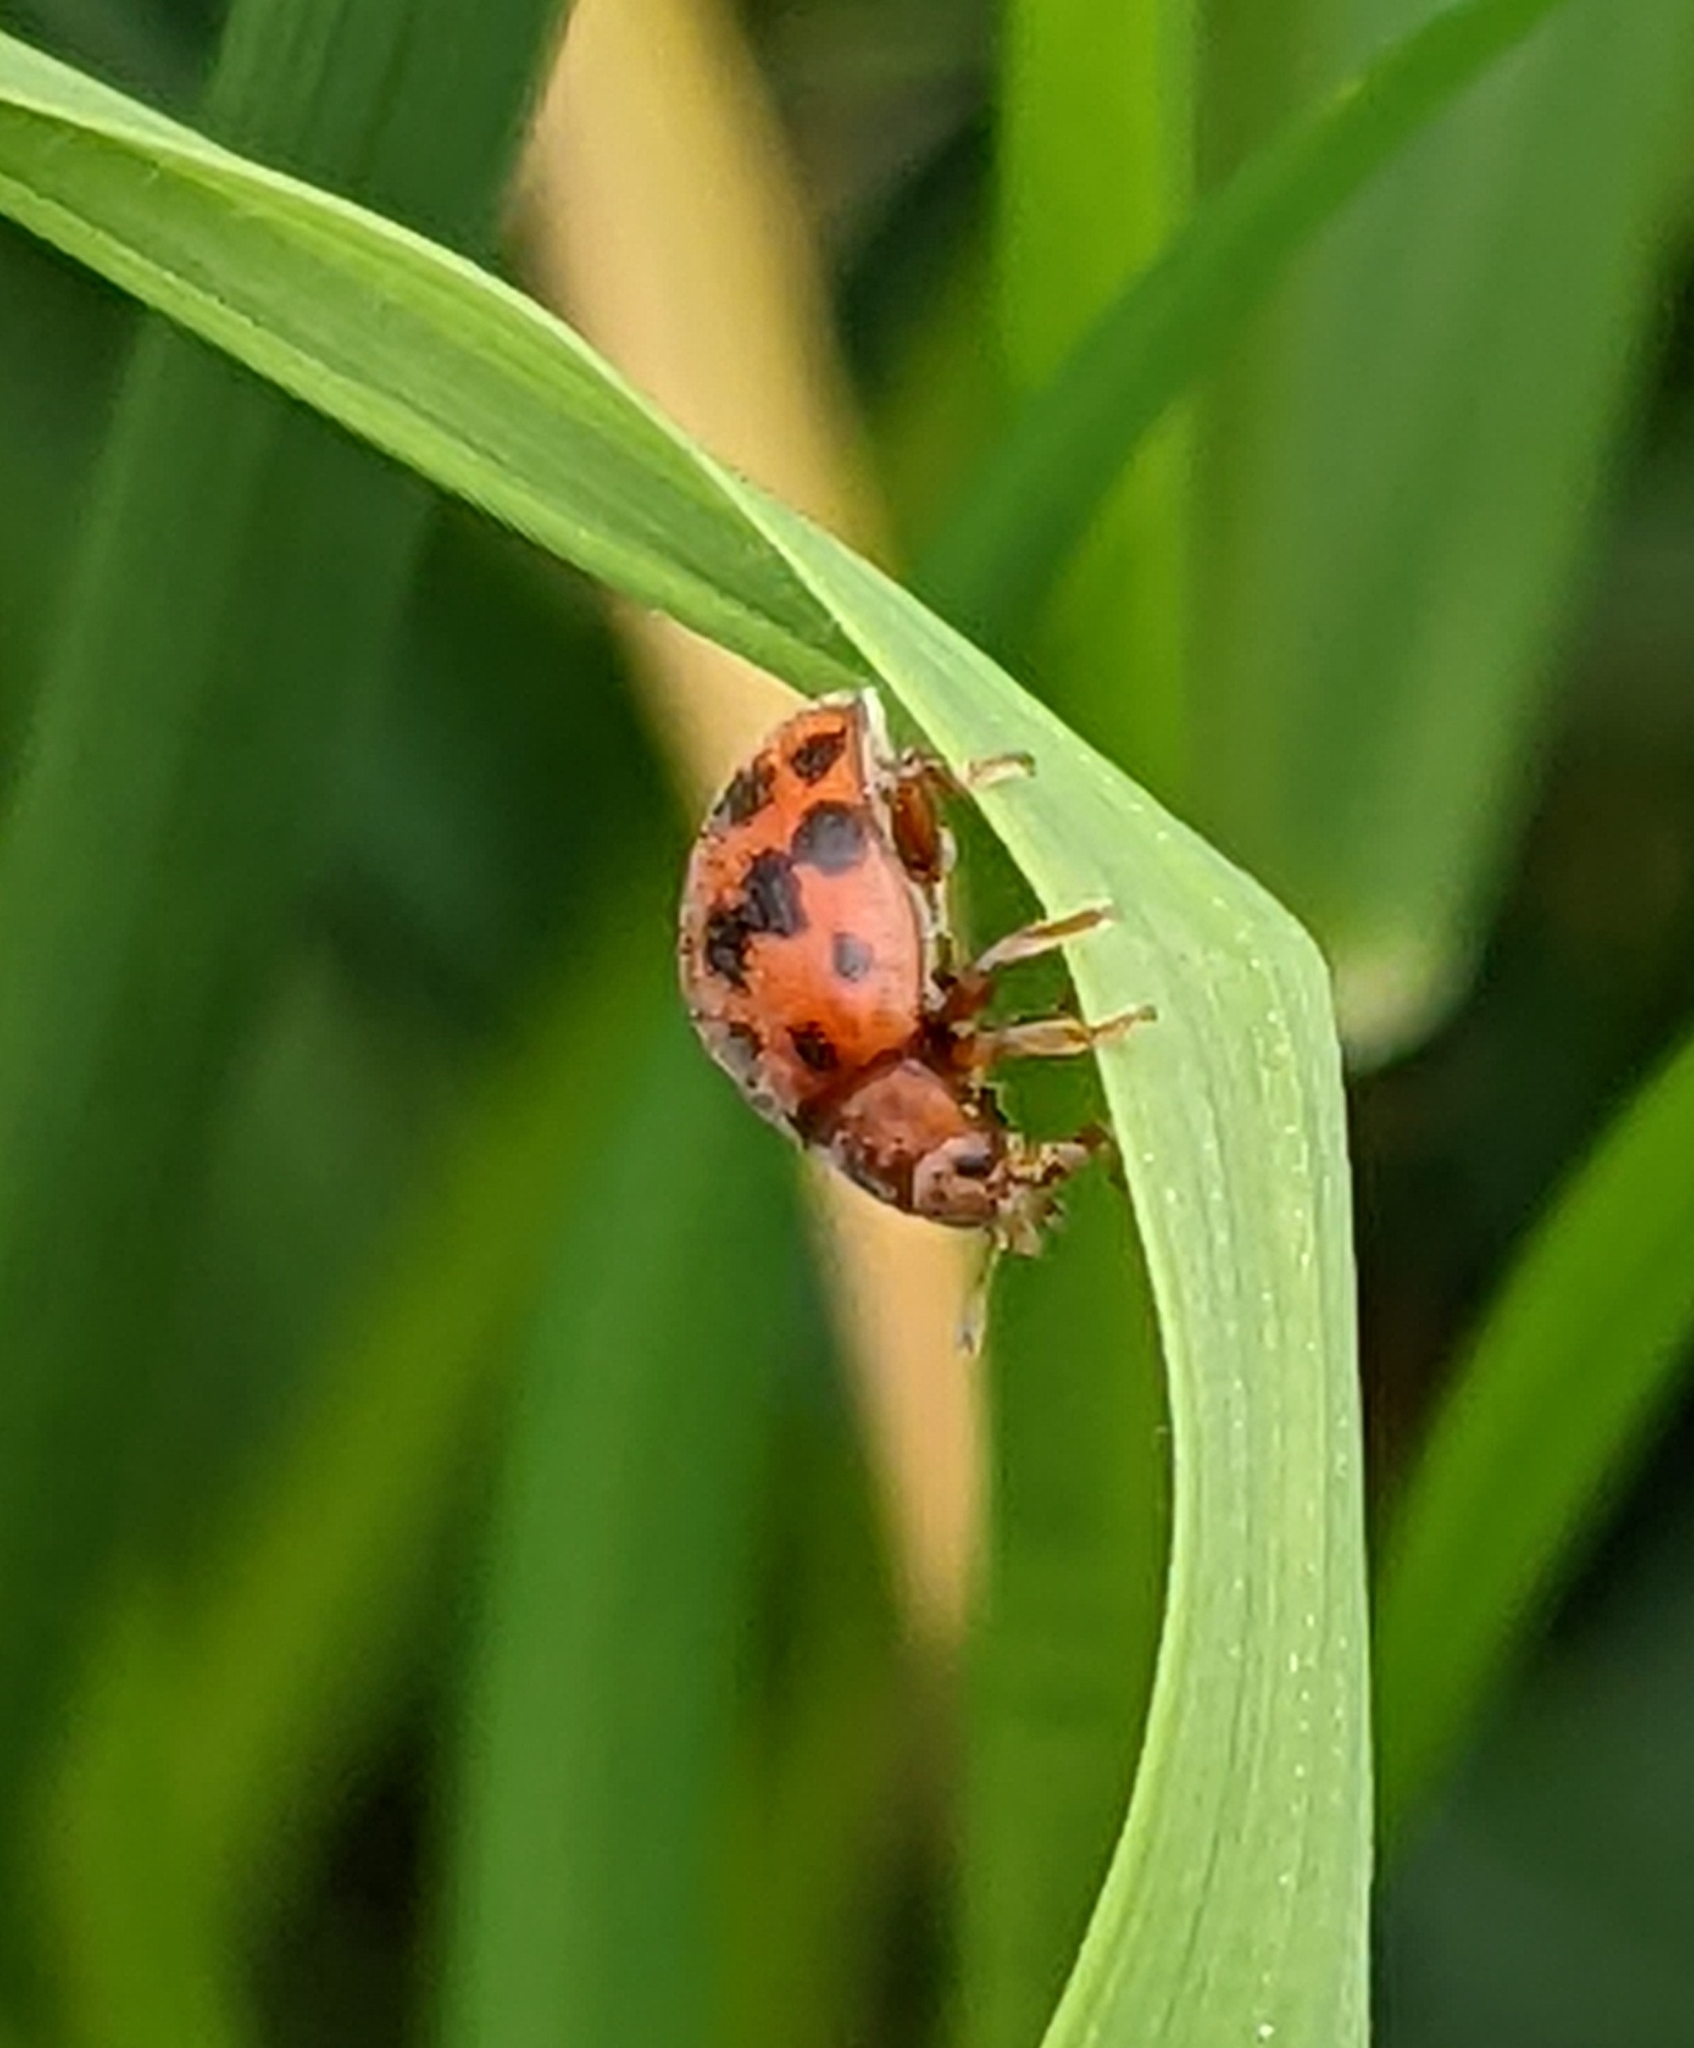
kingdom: Animalia
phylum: Arthropoda
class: Insecta
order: Coleoptera
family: Coccinellidae
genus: Subcoccinella
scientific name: Subcoccinella vigintiquatuorpunctata
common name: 24-spot ladybird
